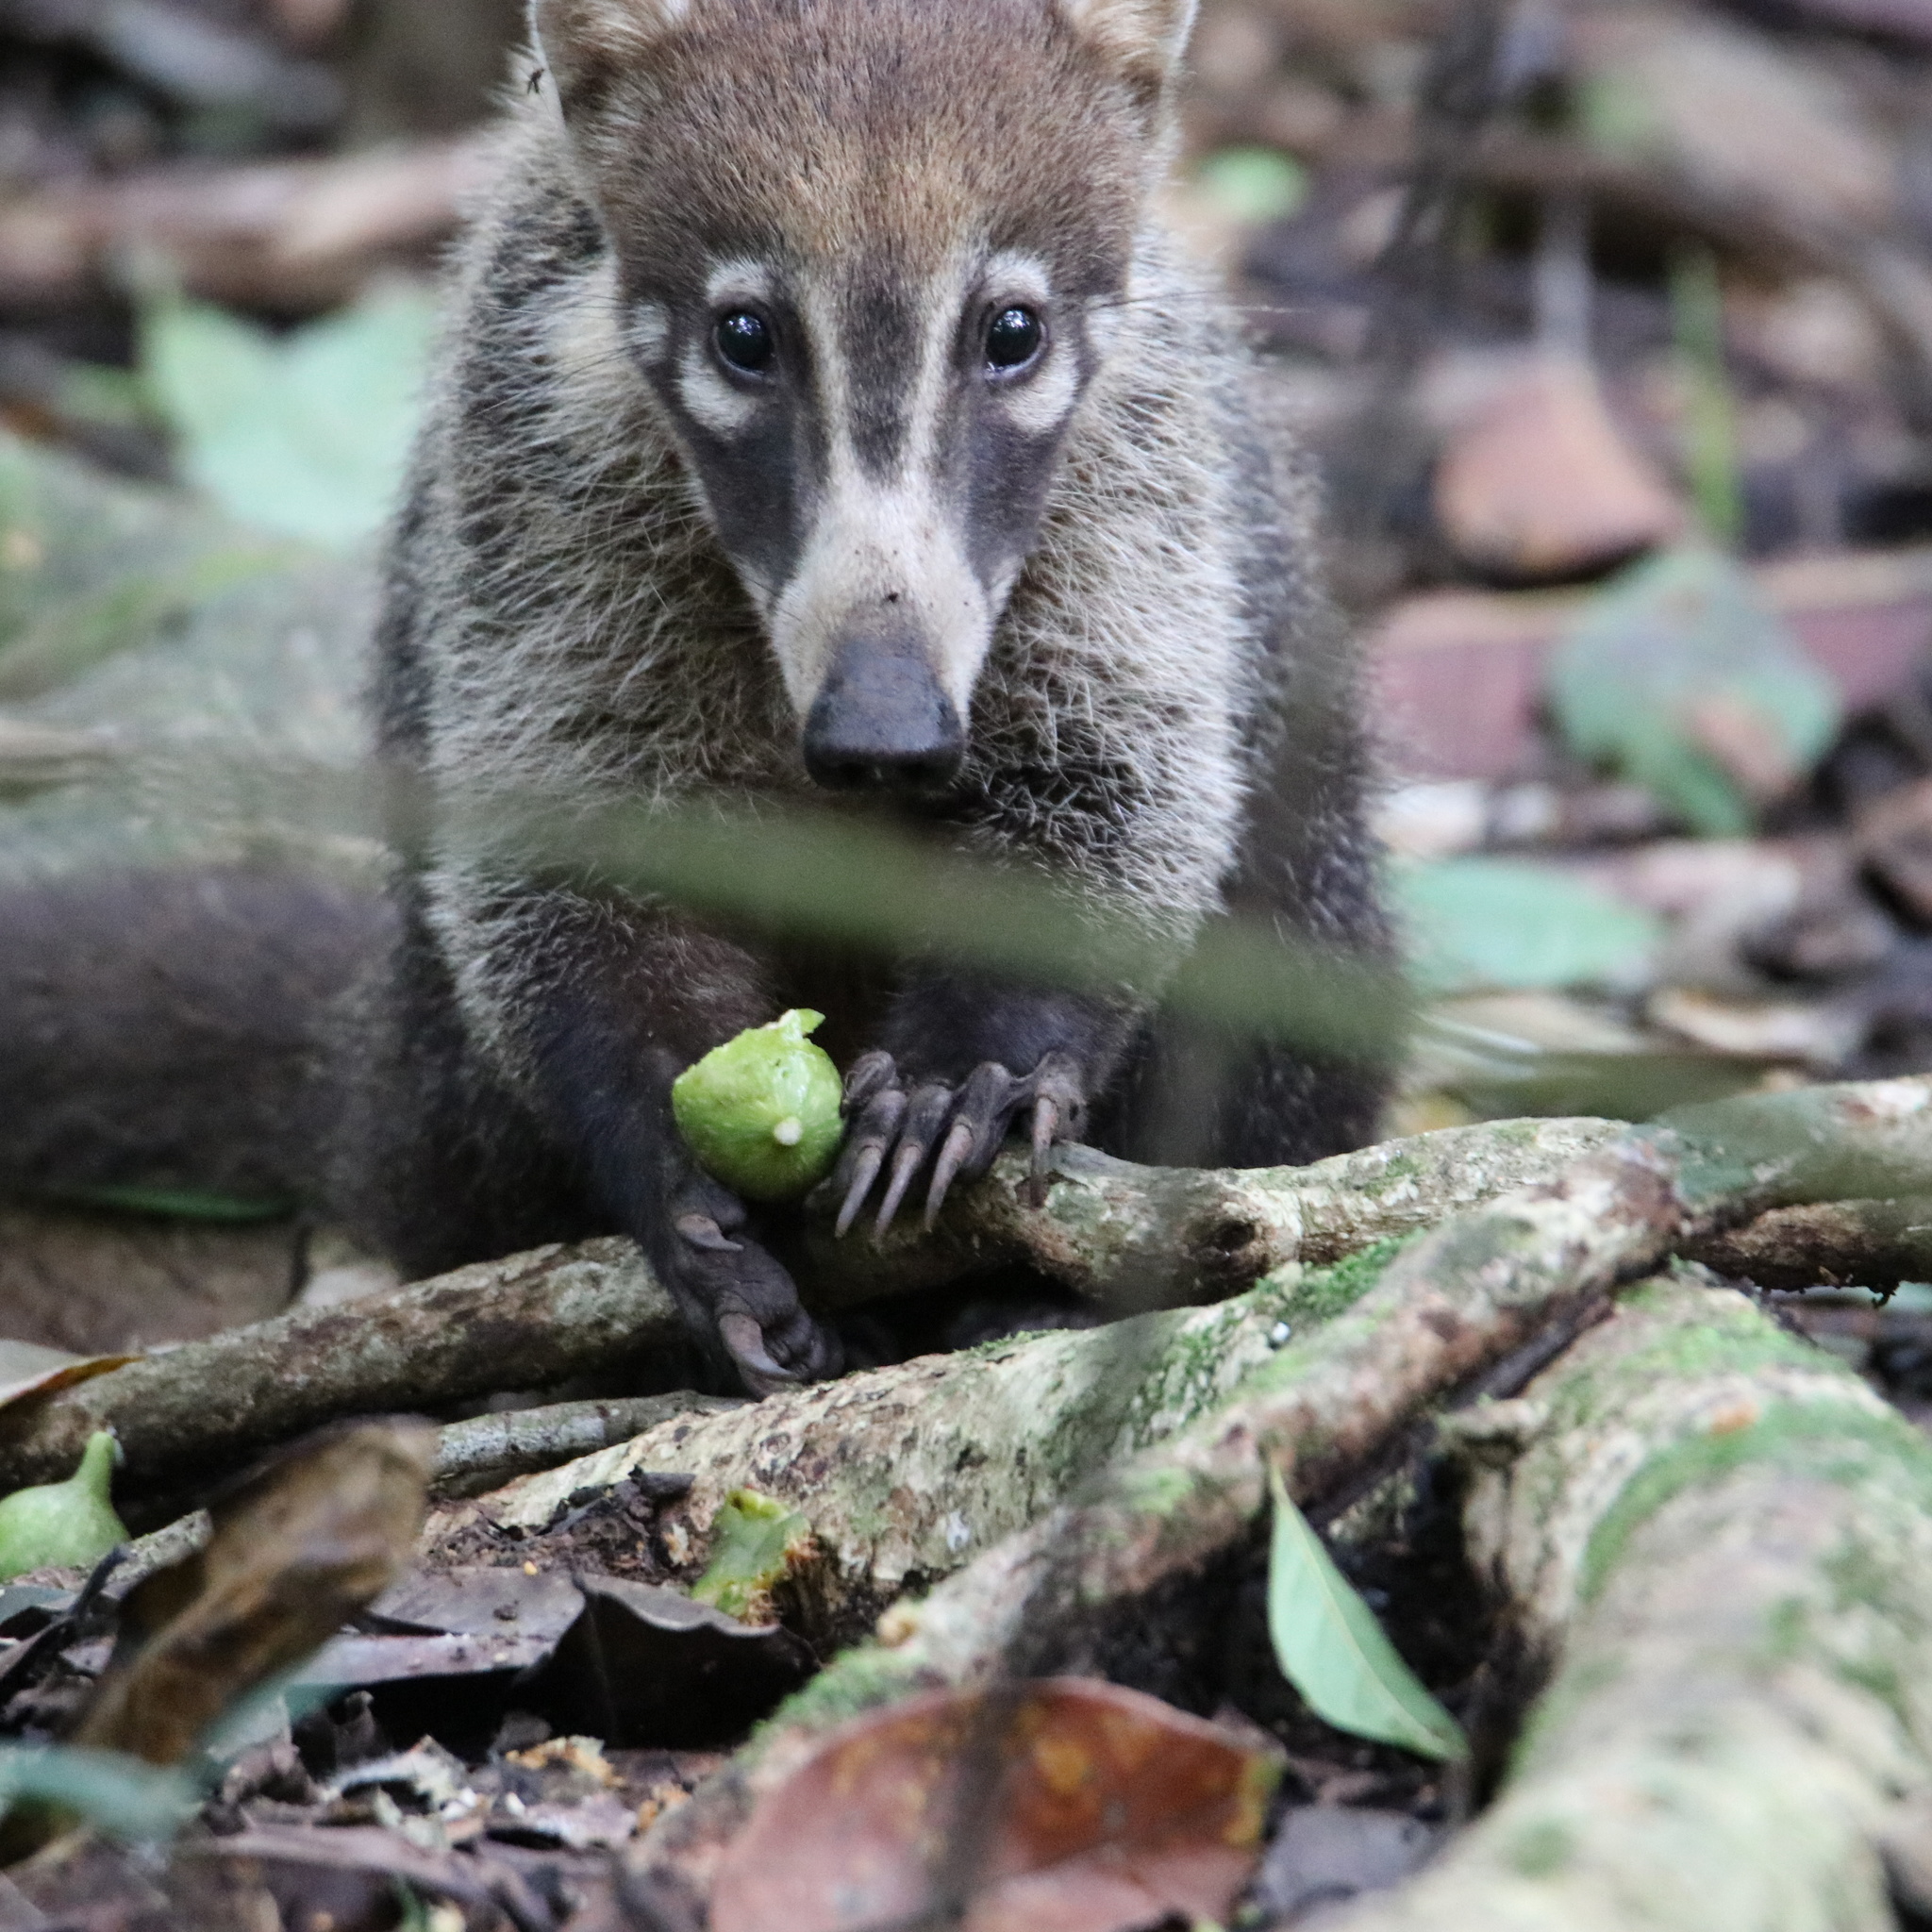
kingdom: Animalia
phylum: Chordata
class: Mammalia
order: Carnivora
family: Procyonidae
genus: Nasua
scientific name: Nasua narica
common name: White-nosed coati
